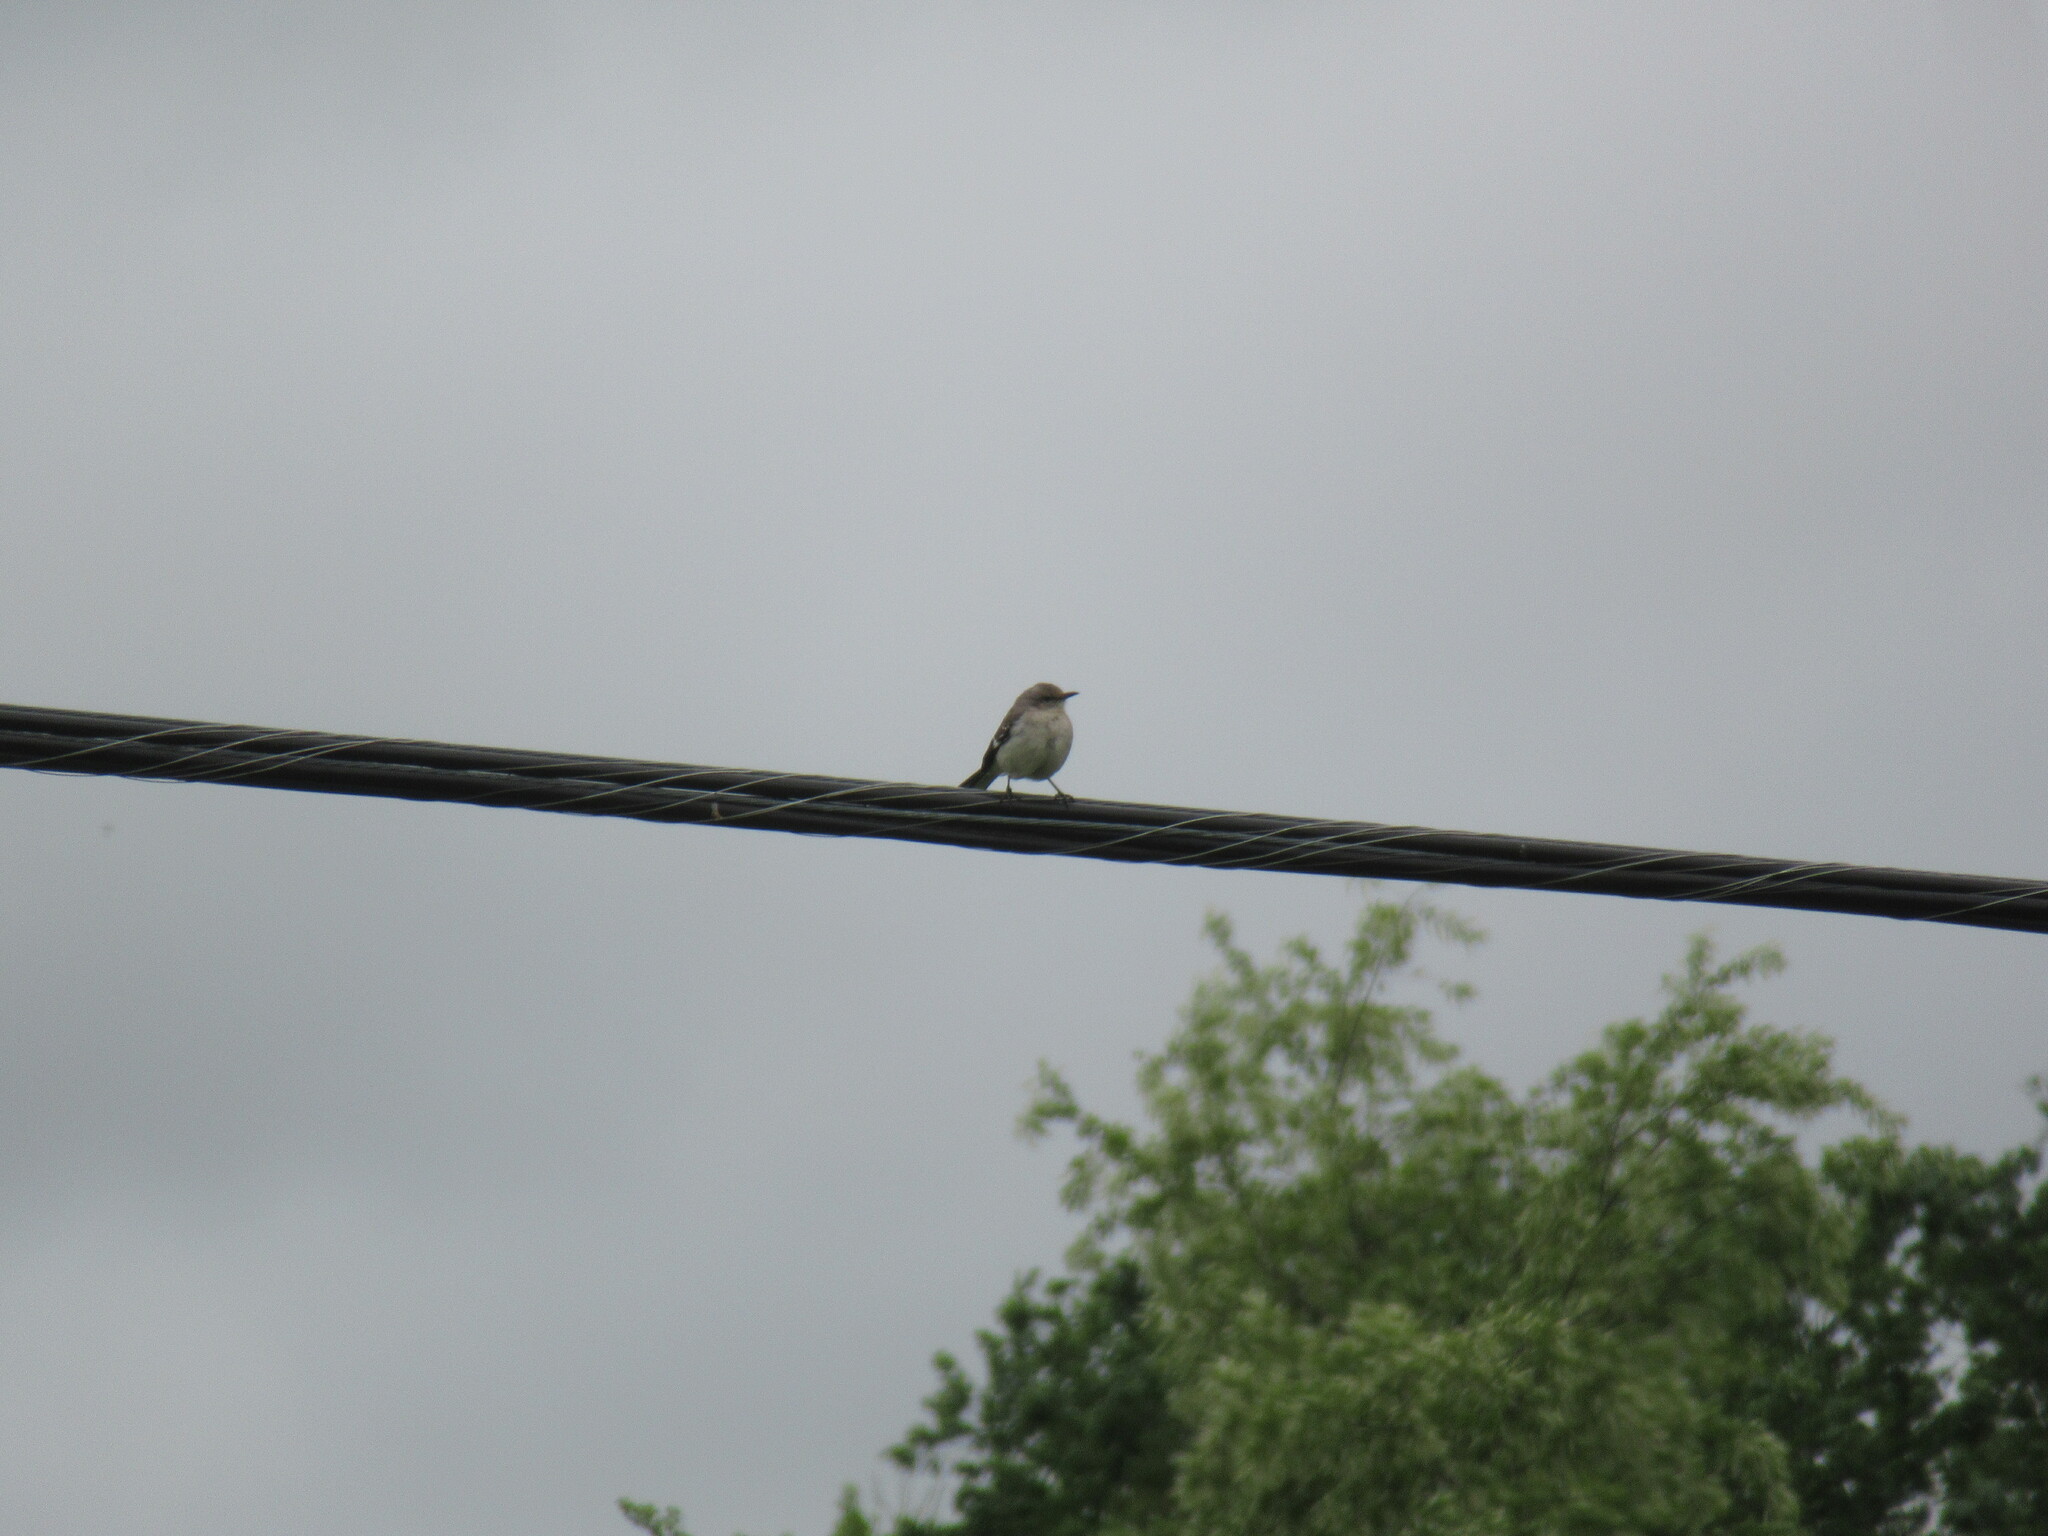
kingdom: Animalia
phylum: Chordata
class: Aves
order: Passeriformes
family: Mimidae
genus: Mimus
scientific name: Mimus polyglottos
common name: Northern mockingbird
